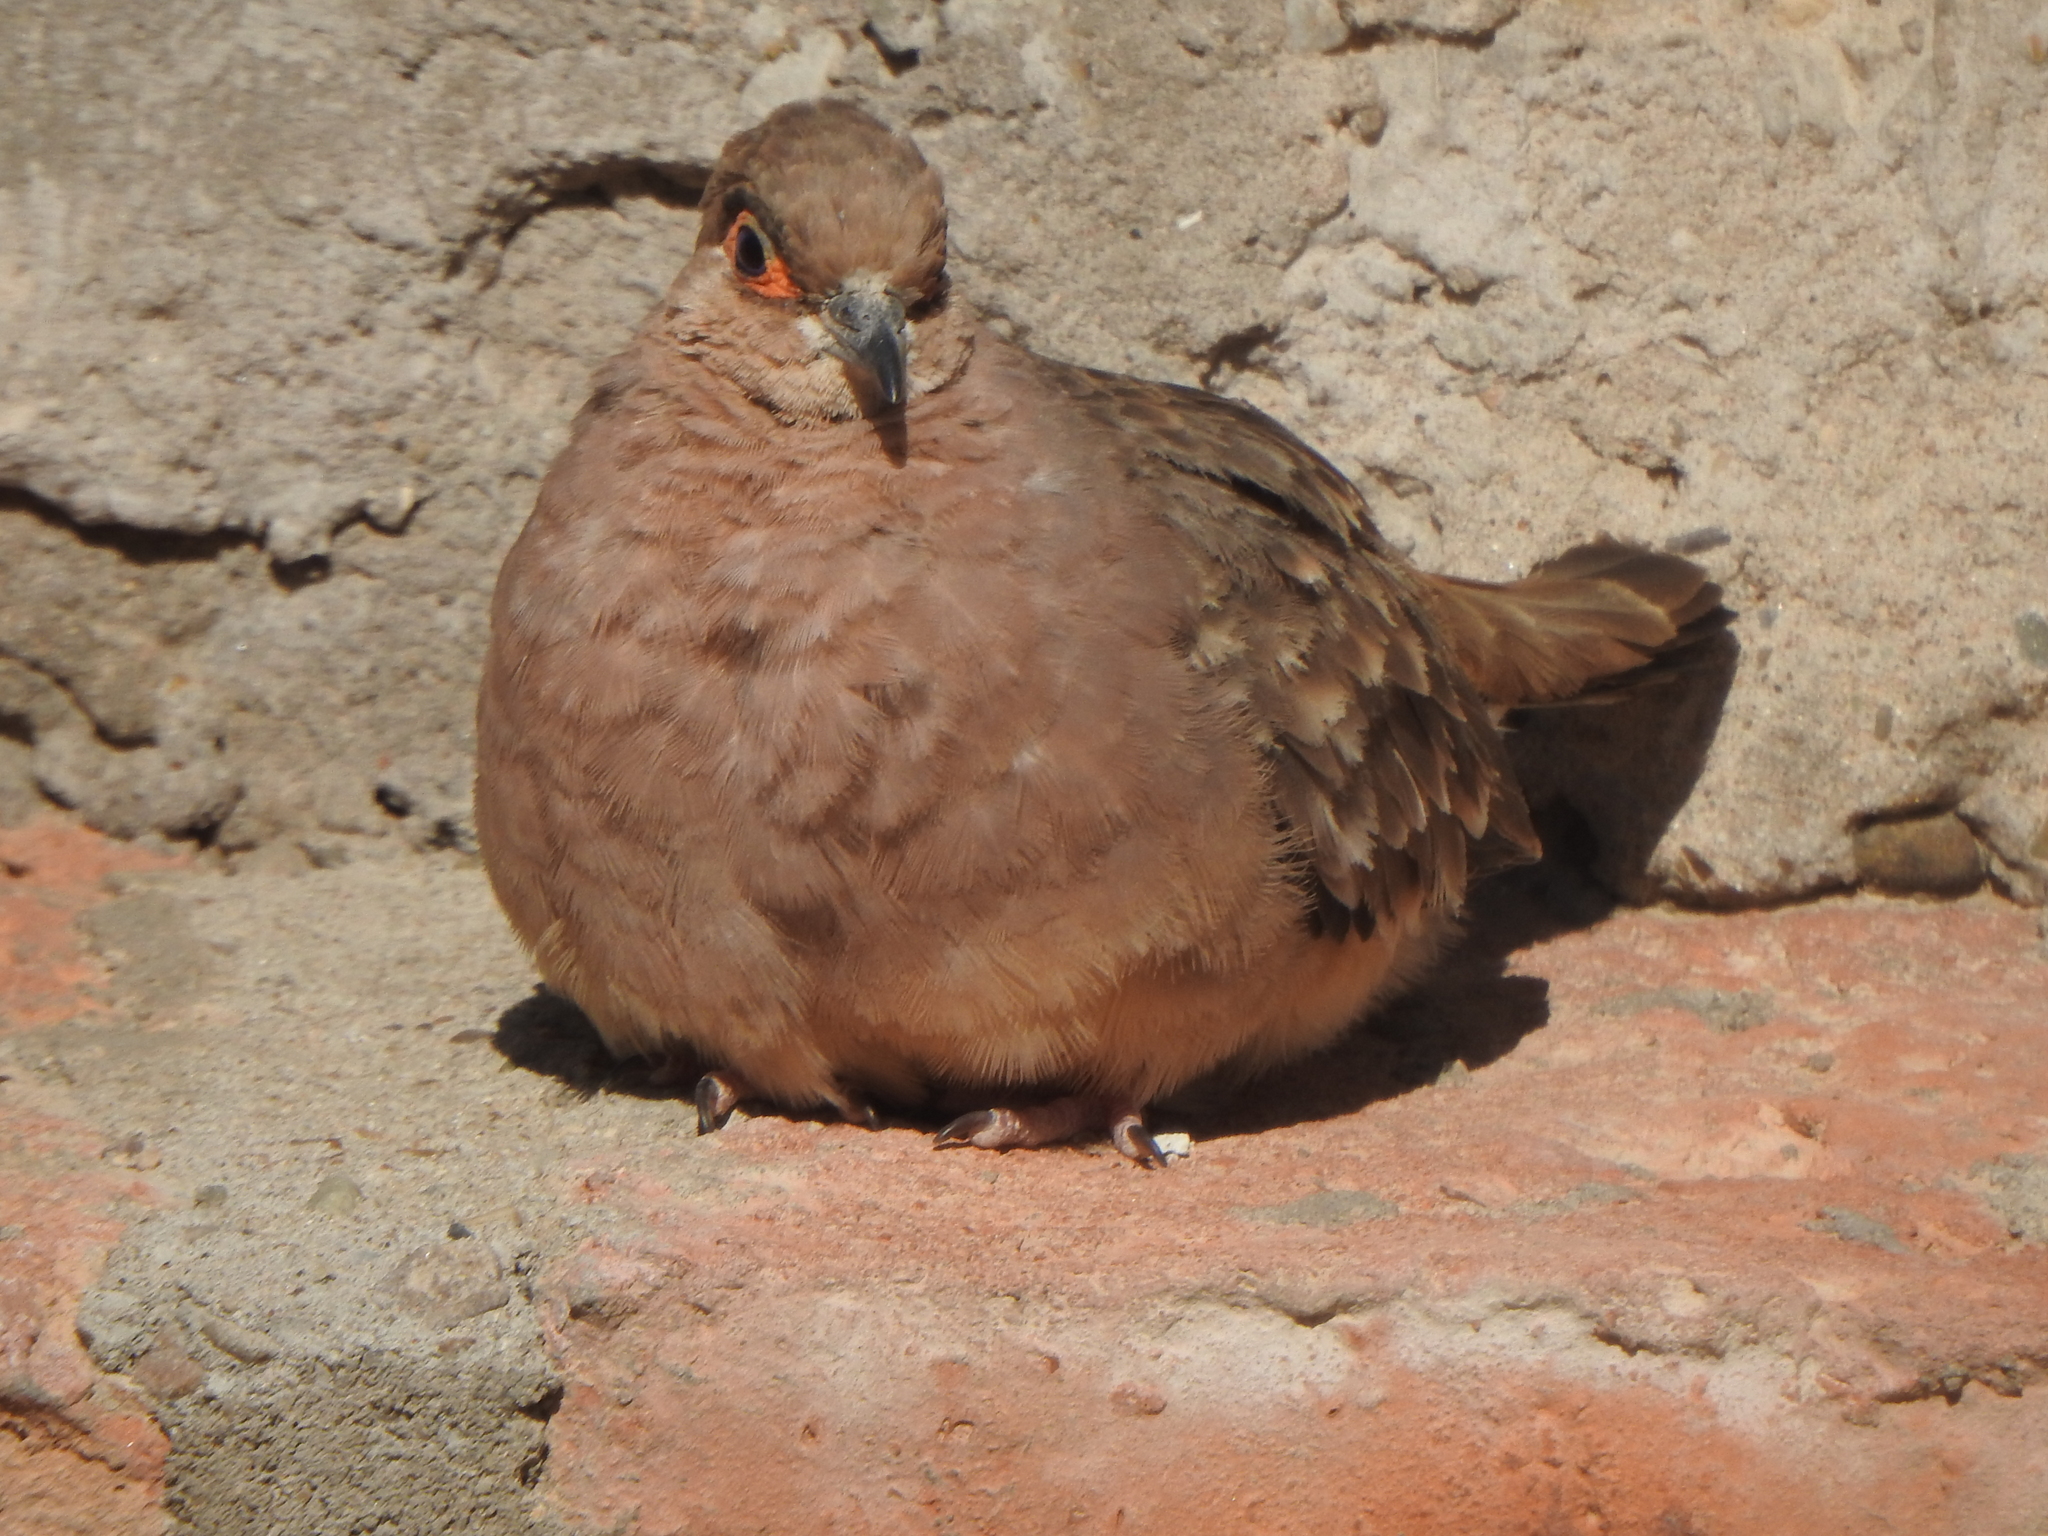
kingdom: Animalia
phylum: Chordata
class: Aves
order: Columbiformes
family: Columbidae
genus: Metriopelia
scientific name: Metriopelia ceciliae
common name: Bare-faced ground dove
